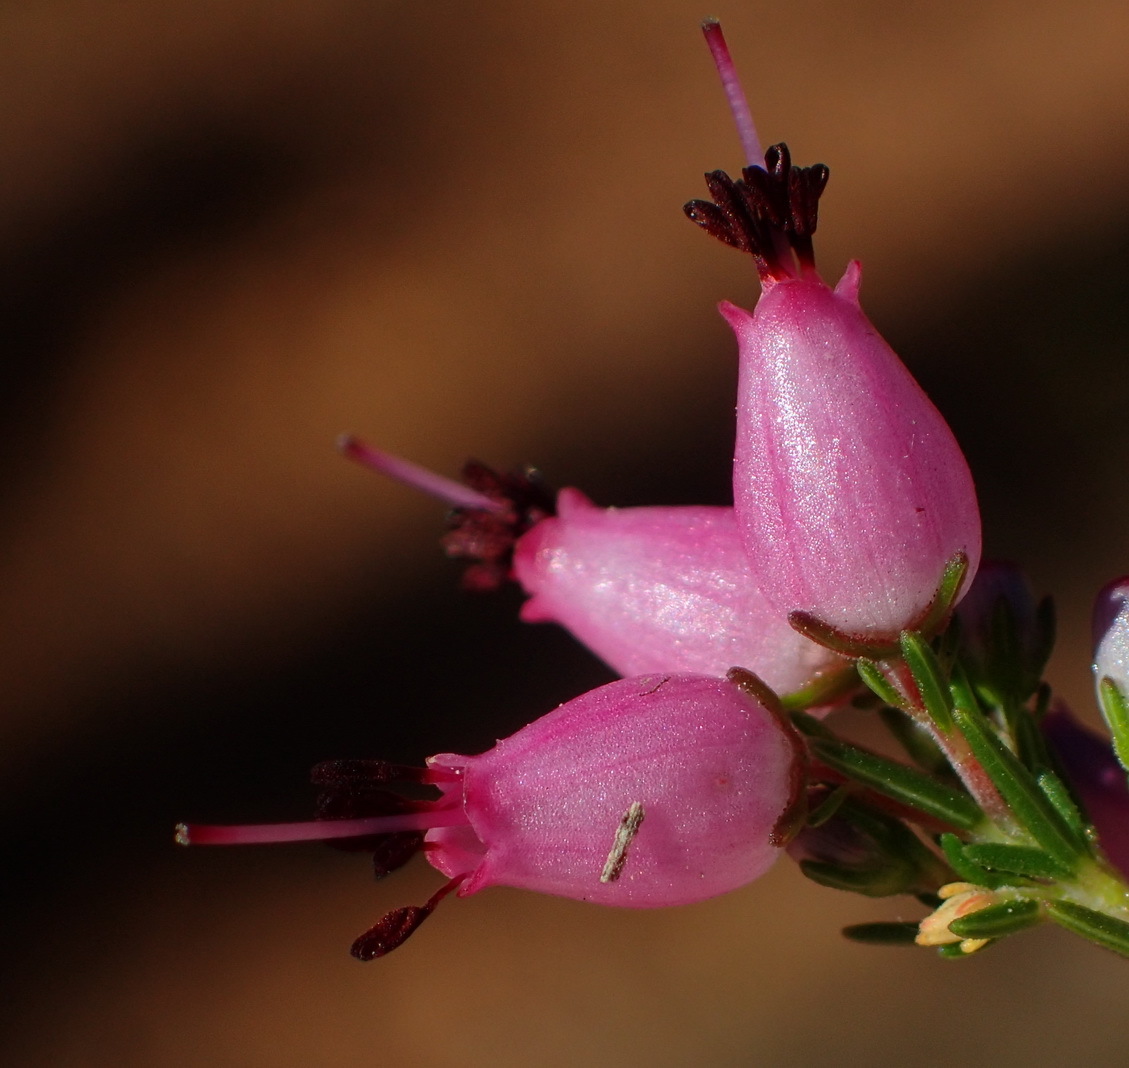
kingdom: Plantae
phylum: Tracheophyta
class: Magnoliopsida
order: Ericales
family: Ericaceae
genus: Erica
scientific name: Erica nutans
